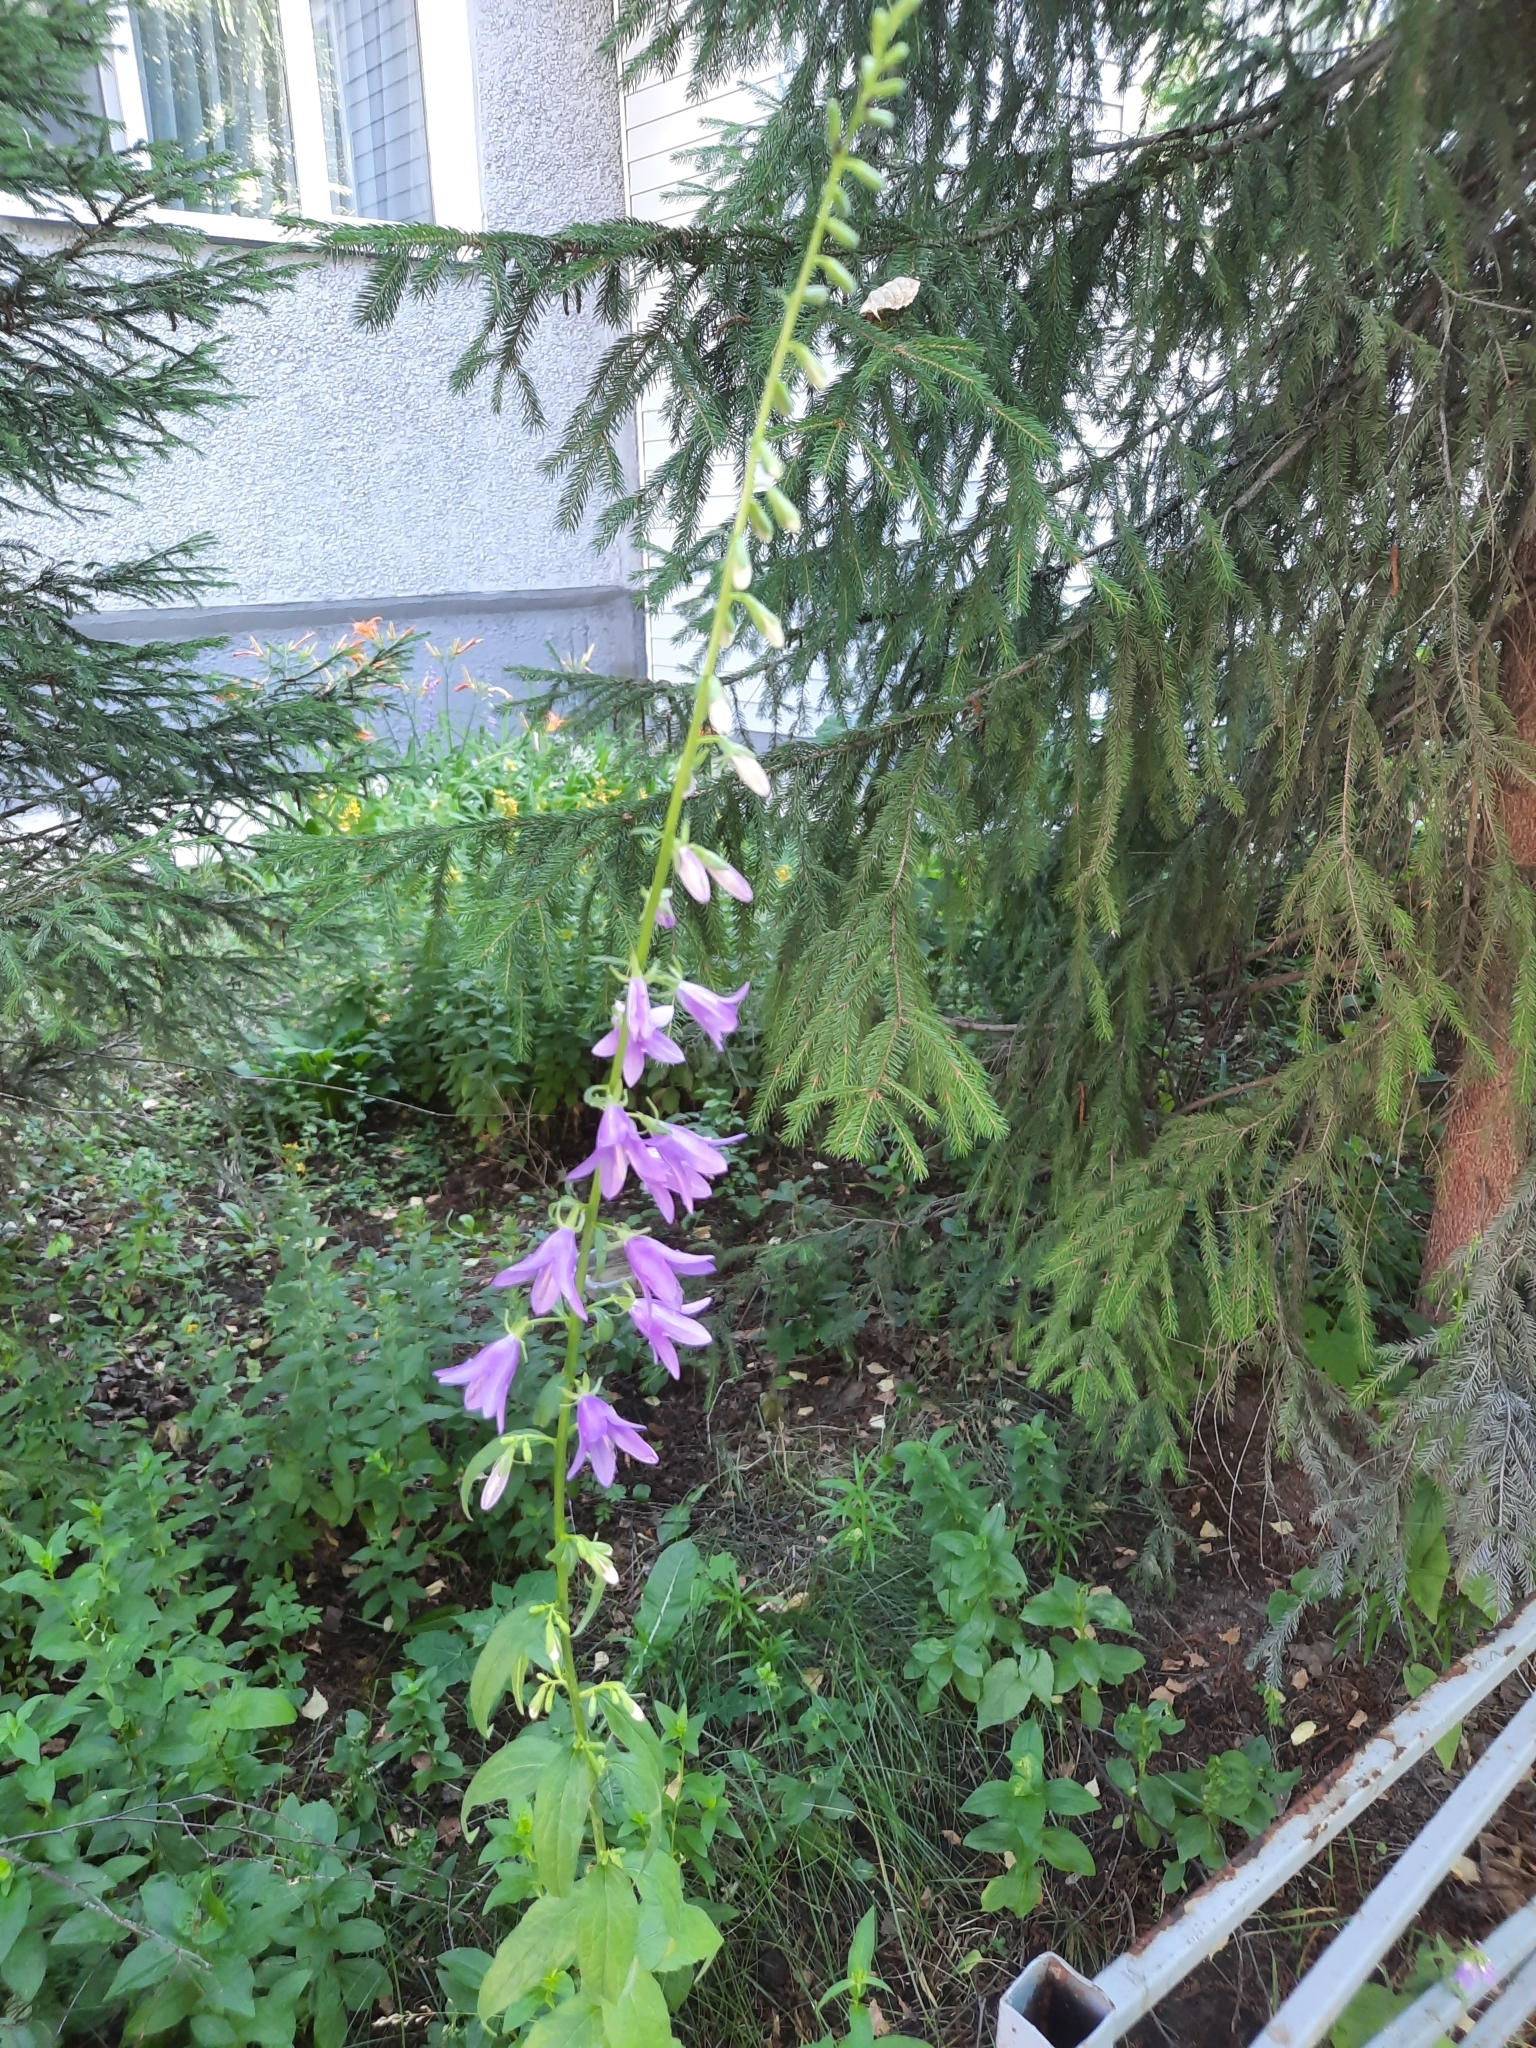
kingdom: Plantae
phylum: Tracheophyta
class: Magnoliopsida
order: Asterales
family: Campanulaceae
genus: Campanula
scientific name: Campanula rapunculoides
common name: Creeping bellflower
